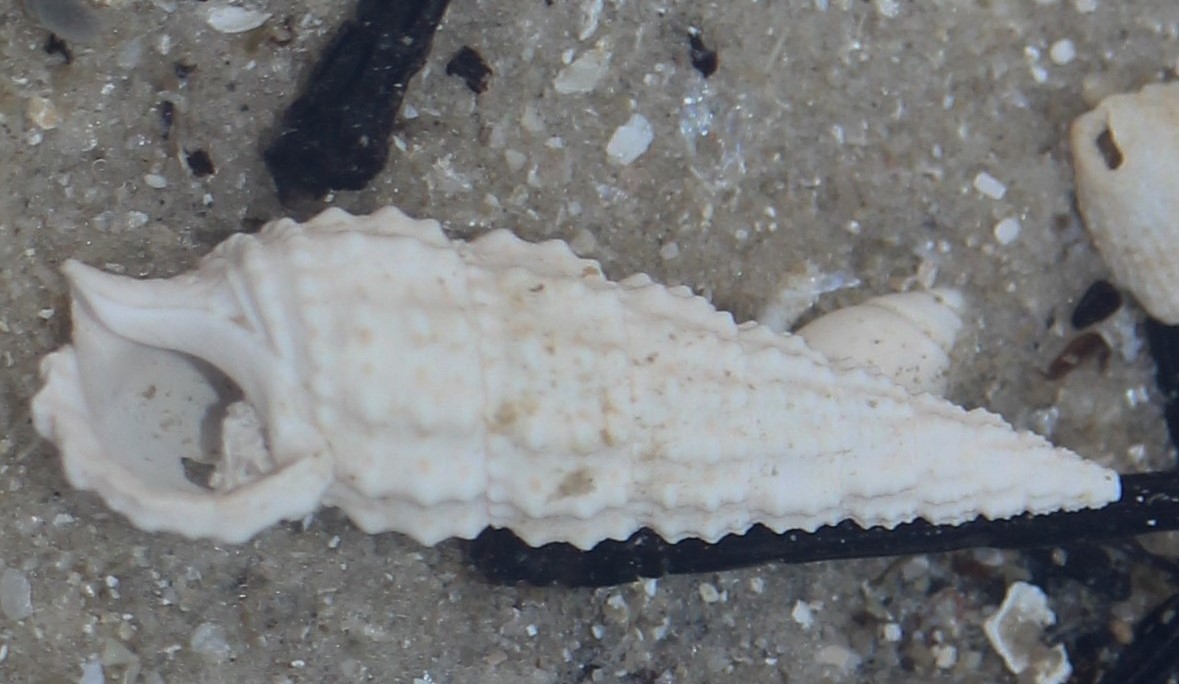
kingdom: Animalia
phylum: Mollusca
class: Gastropoda
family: Cerithiidae
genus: Cerithium
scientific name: Cerithium muscarum
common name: Fly-specked cerith
